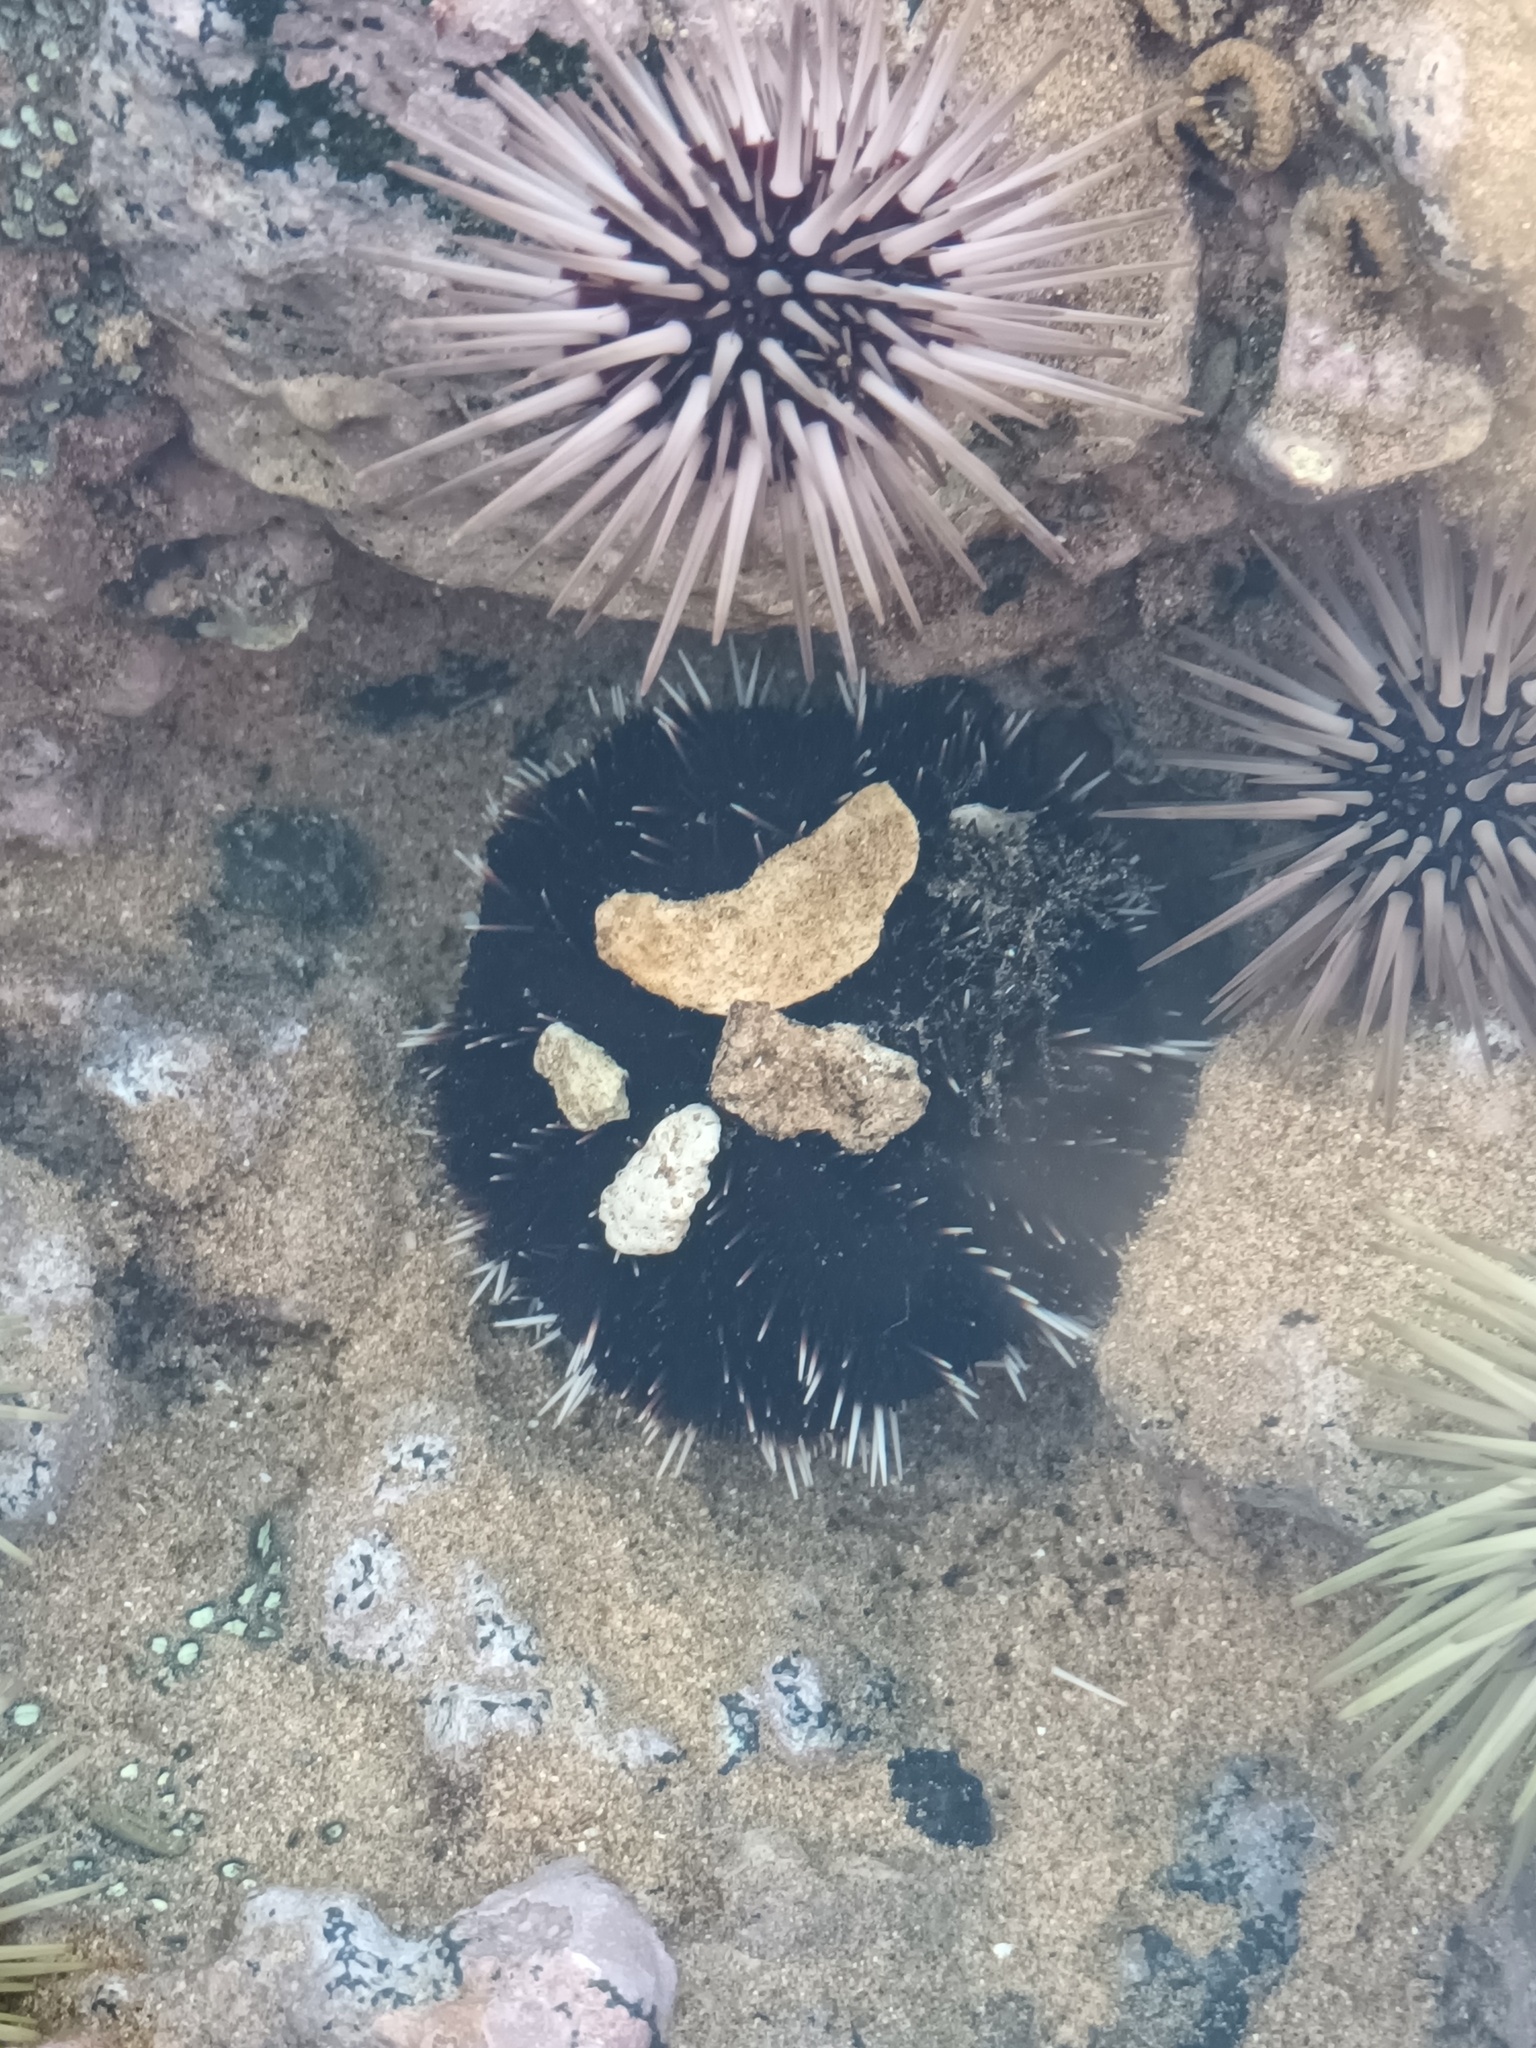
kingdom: Animalia
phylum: Echinodermata
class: Echinoidea
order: Camarodonta
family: Toxopneustidae
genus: Tripneustes
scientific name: Tripneustes gratilla
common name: Bischofsmützenseeigel
